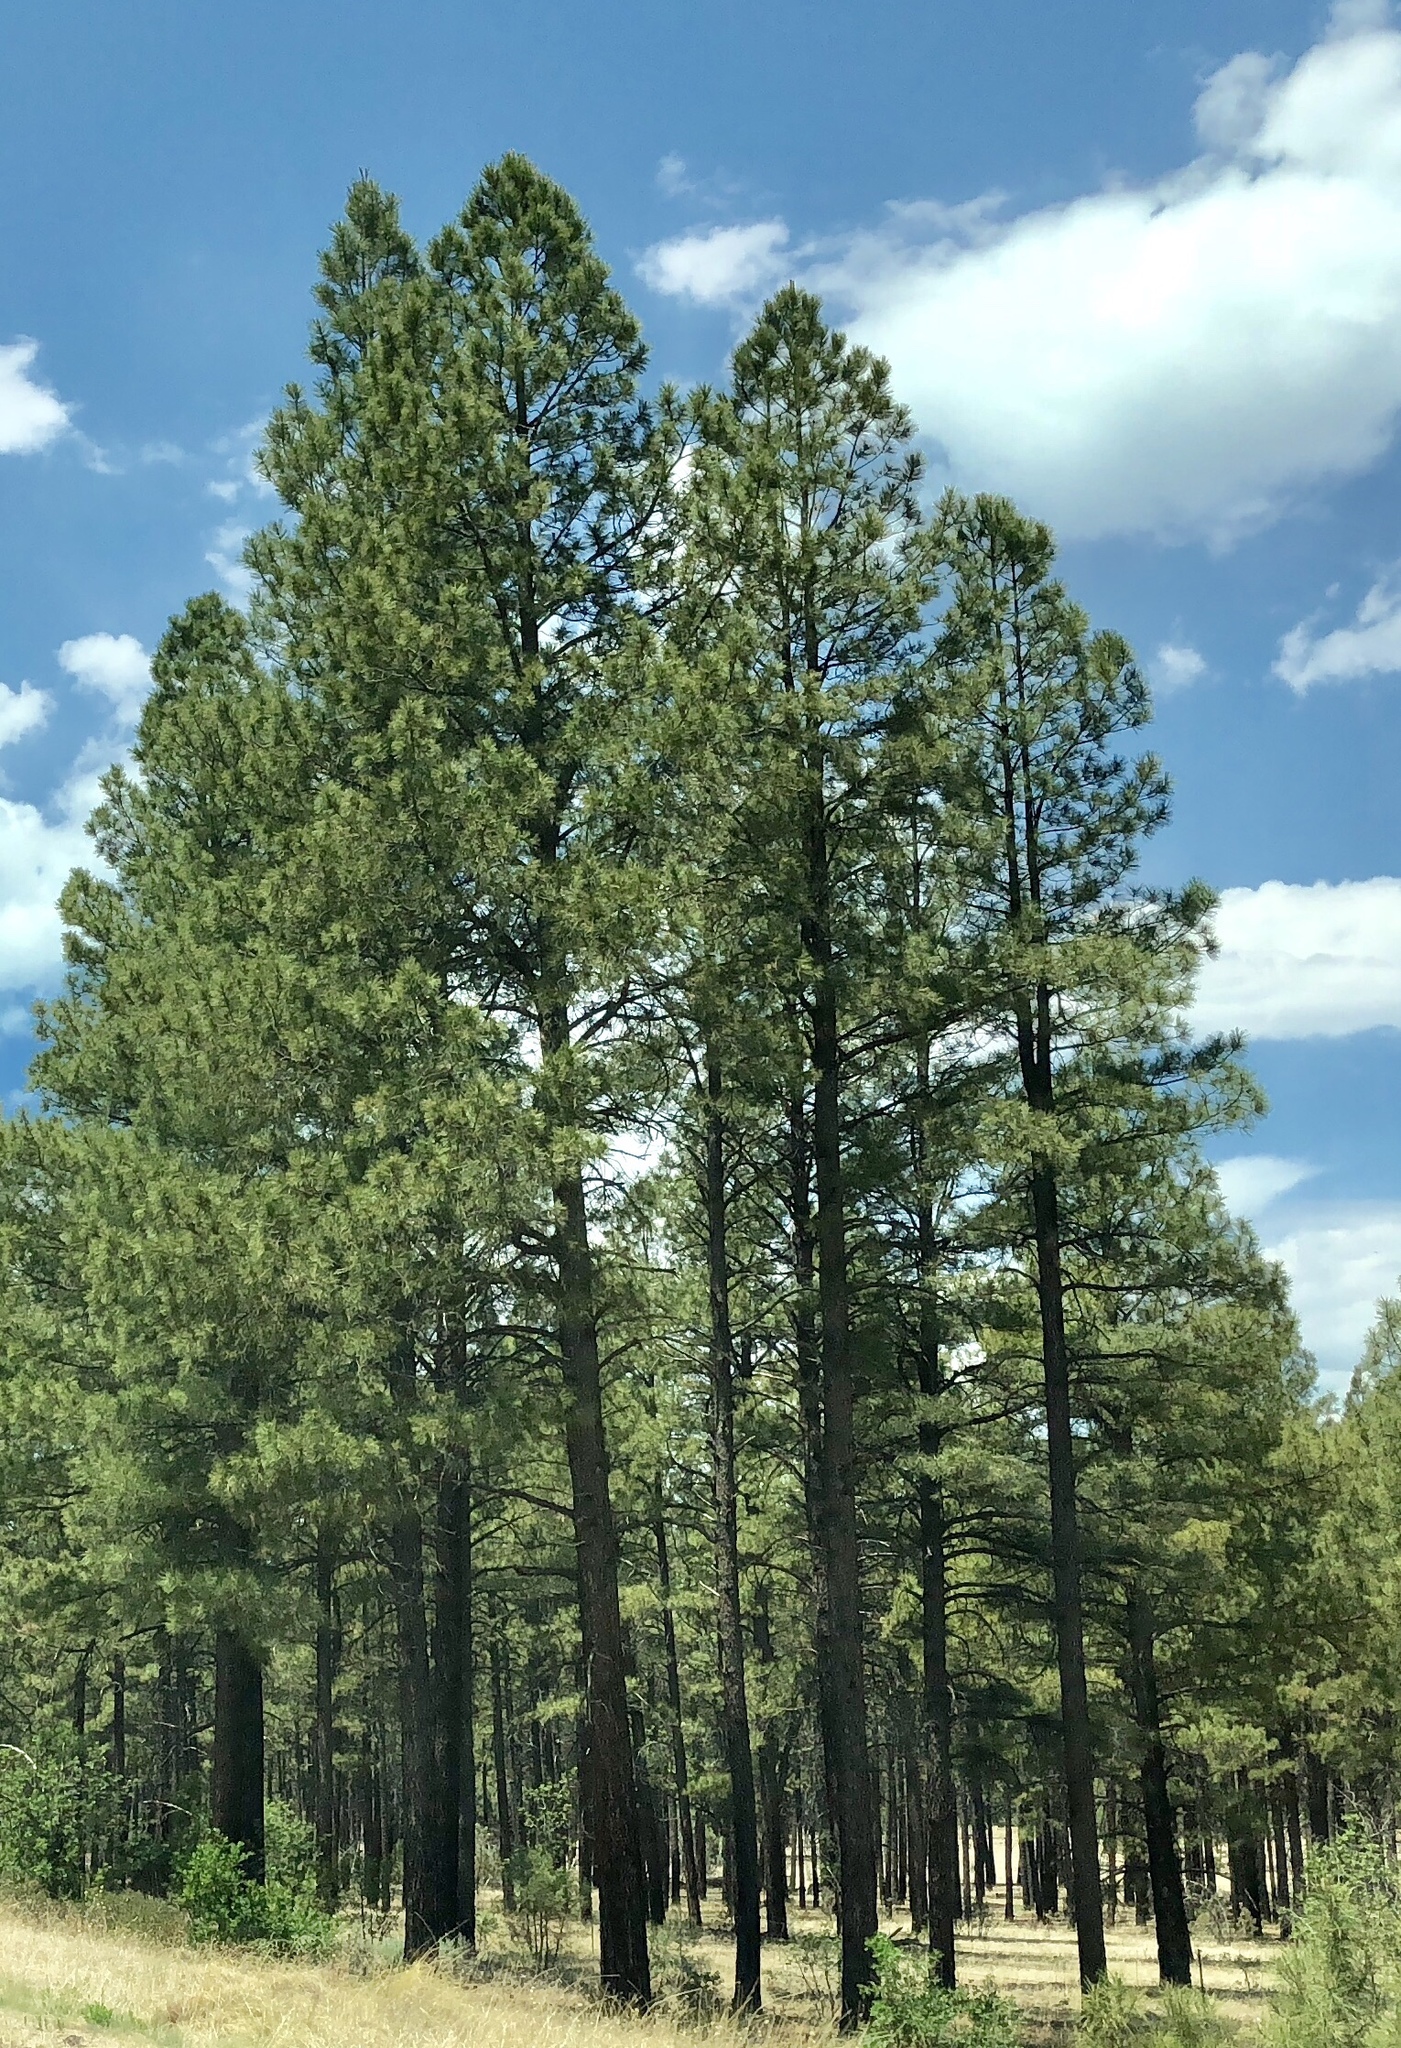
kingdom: Plantae
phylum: Tracheophyta
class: Pinopsida
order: Pinales
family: Pinaceae
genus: Pinus
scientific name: Pinus ponderosa
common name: Western yellow-pine
